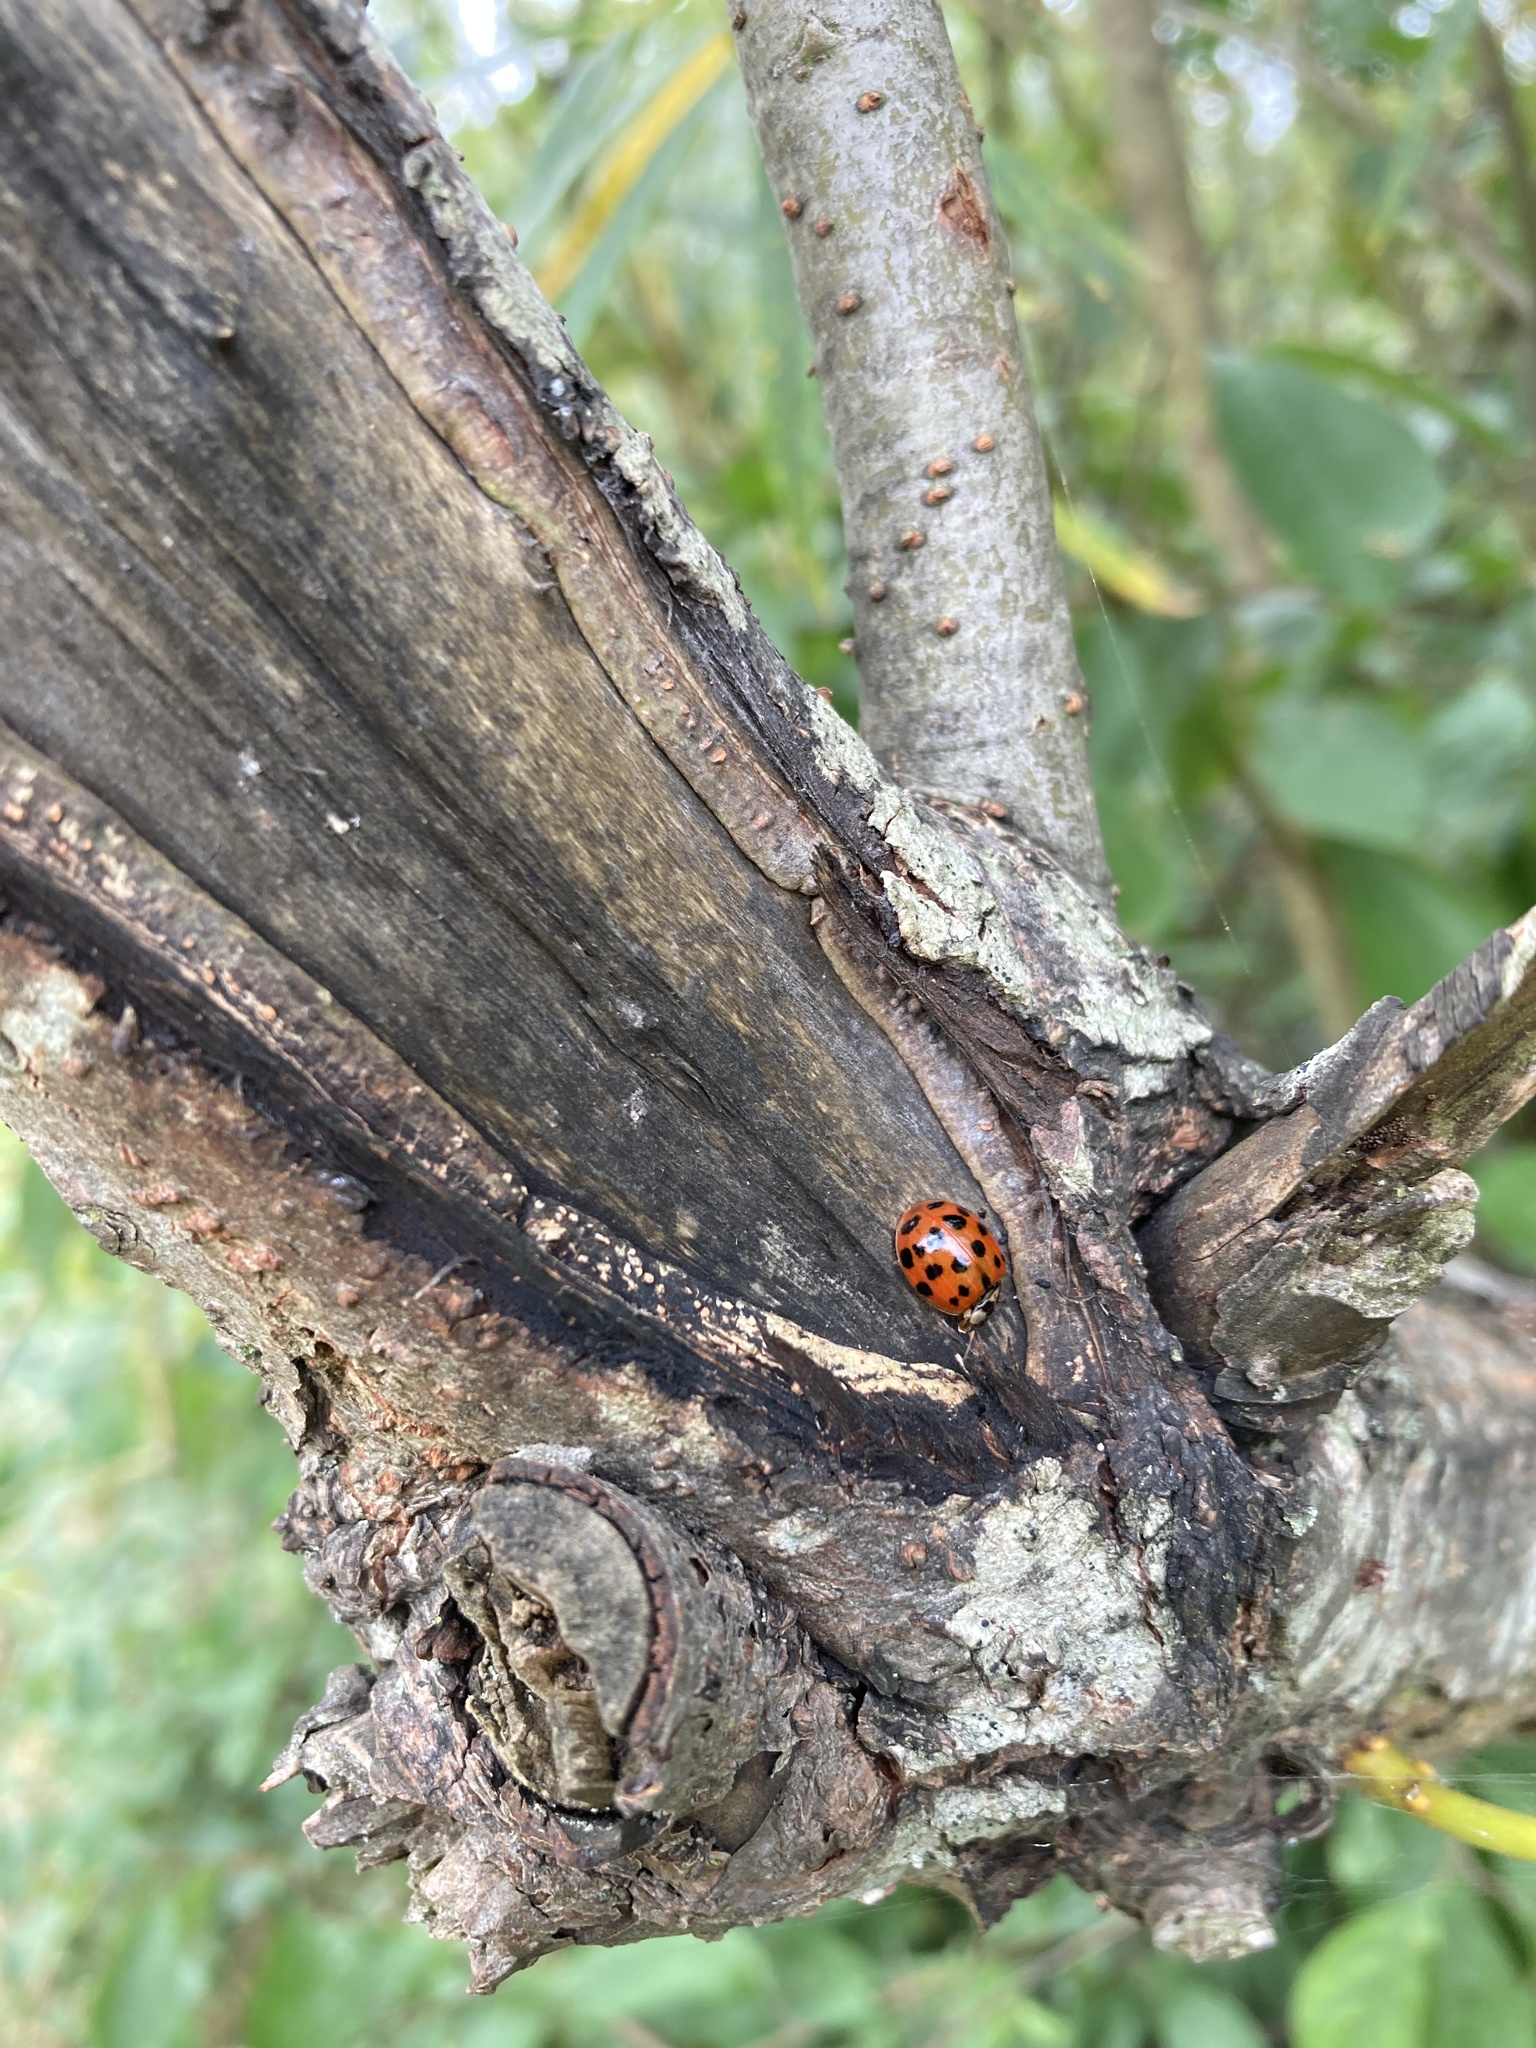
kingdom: Animalia
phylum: Arthropoda
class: Insecta
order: Coleoptera
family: Coccinellidae
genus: Harmonia
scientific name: Harmonia axyridis
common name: Harlequin ladybird
